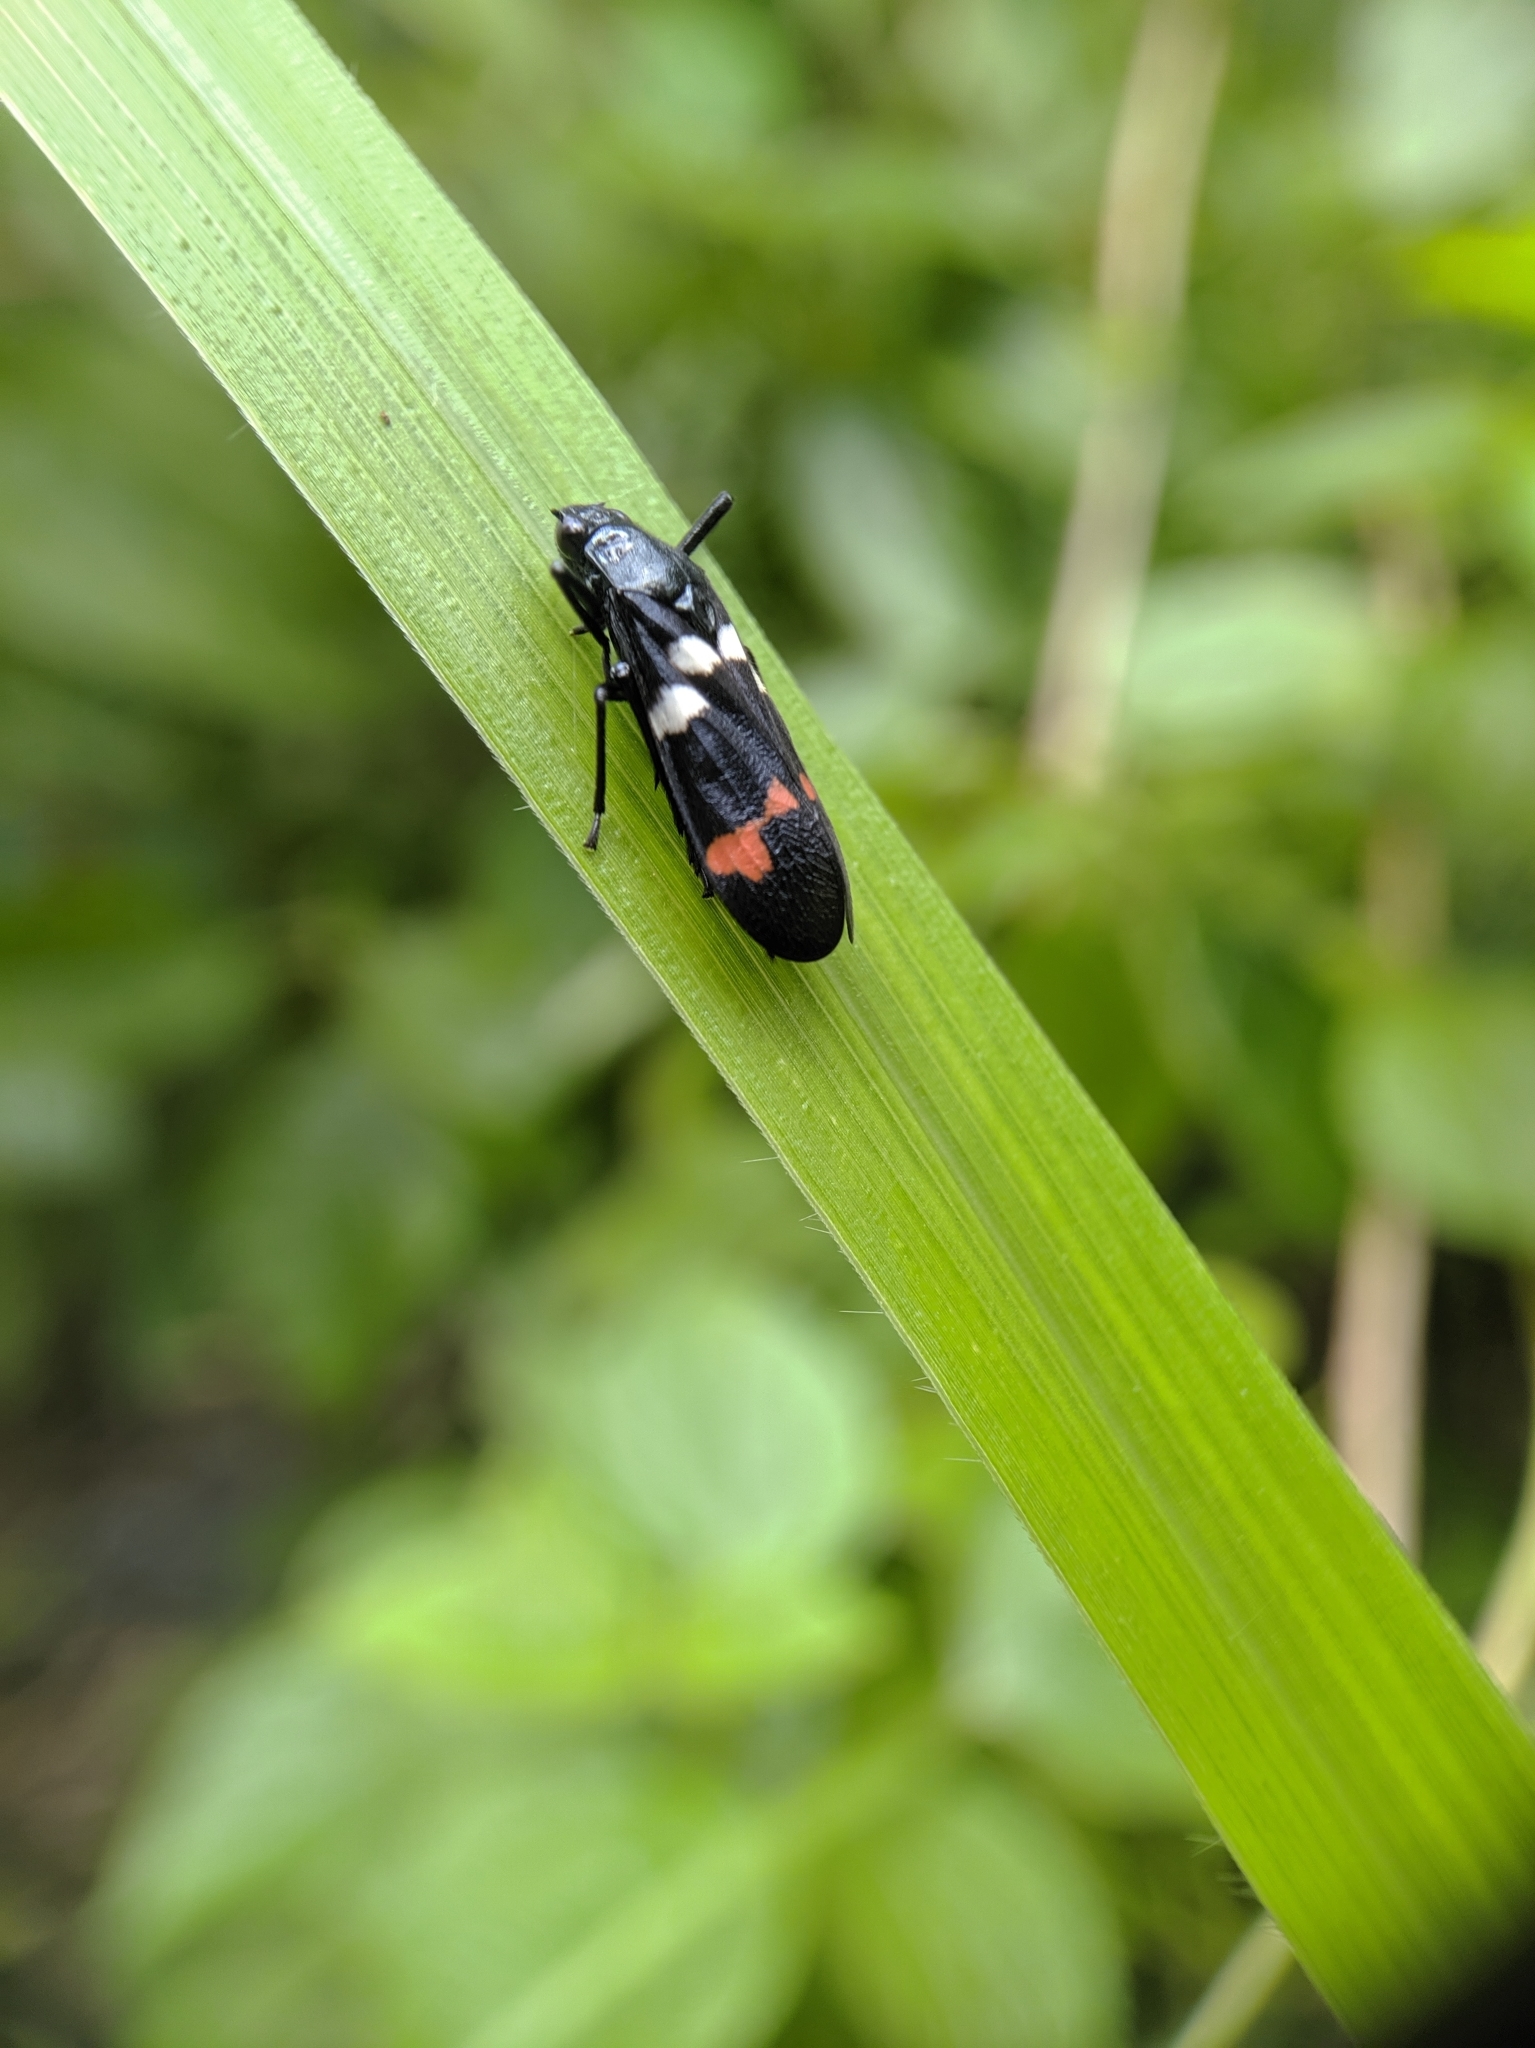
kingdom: Animalia
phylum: Arthropoda
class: Insecta
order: Hemiptera
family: Cercopidae
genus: Callitettix
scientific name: Callitettix versicolor
